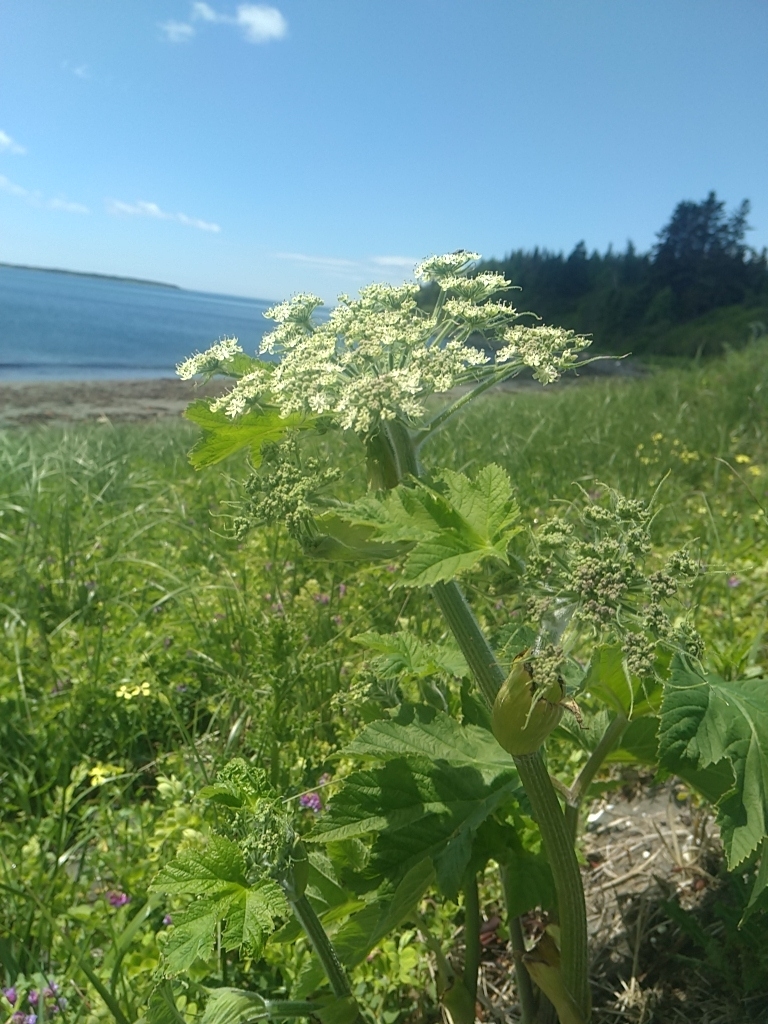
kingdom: Plantae
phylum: Tracheophyta
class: Magnoliopsida
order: Apiales
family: Apiaceae
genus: Heracleum
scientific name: Heracleum maximum
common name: American cow parsnip
